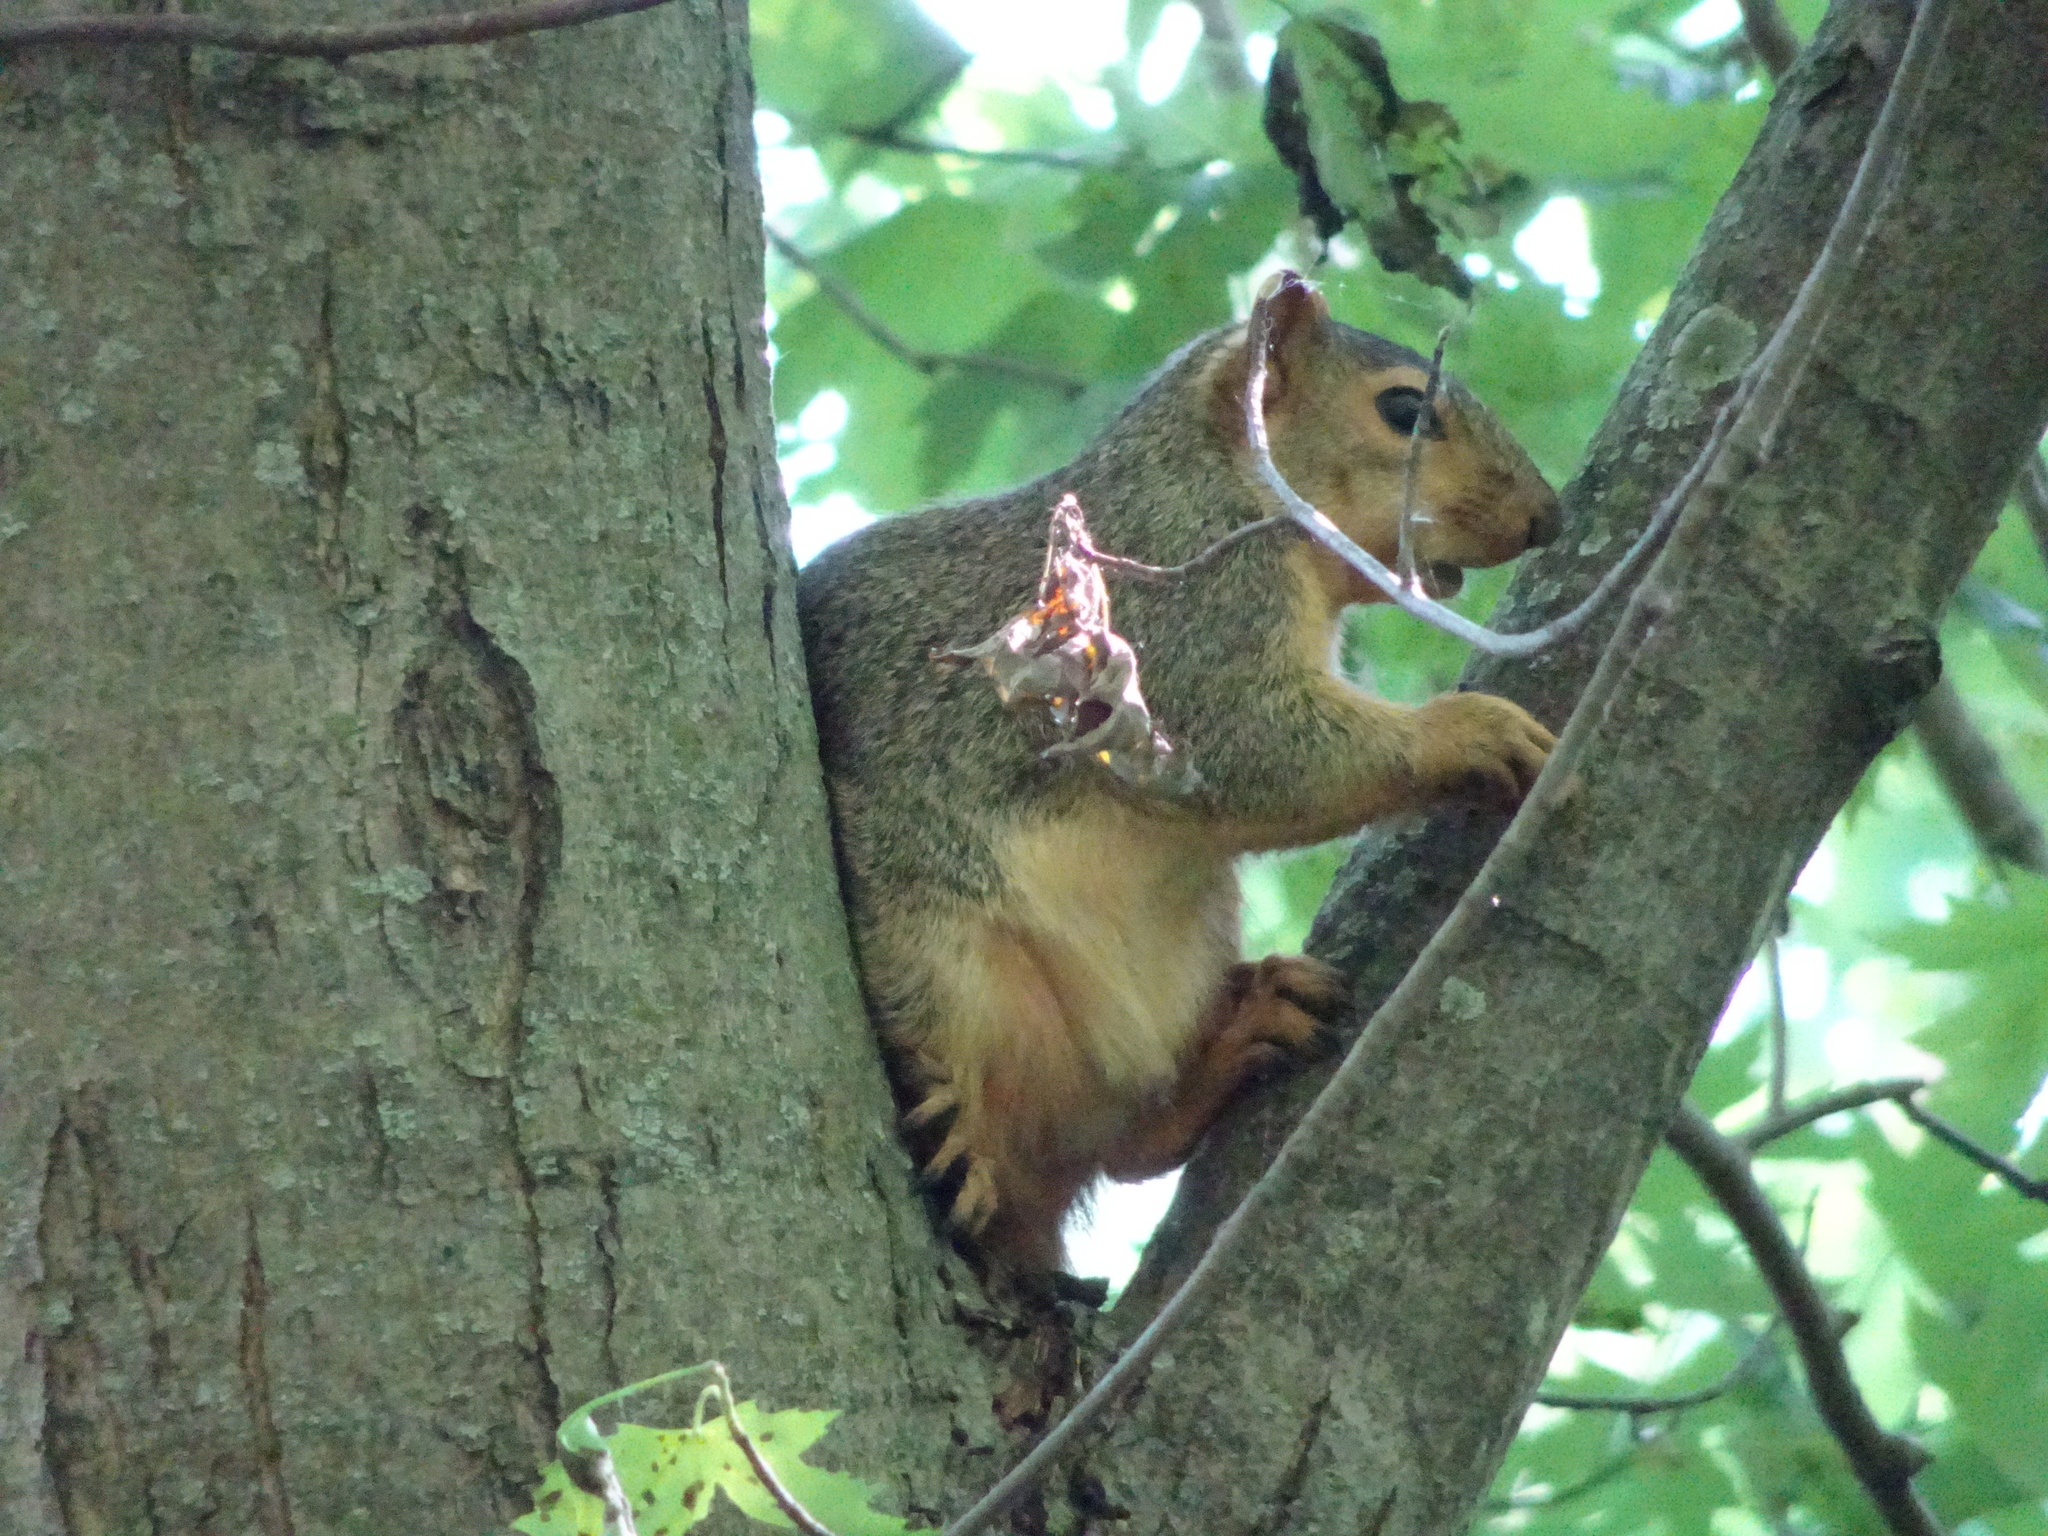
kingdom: Animalia
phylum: Chordata
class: Mammalia
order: Rodentia
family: Sciuridae
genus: Sciurus
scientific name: Sciurus niger
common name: Fox squirrel
